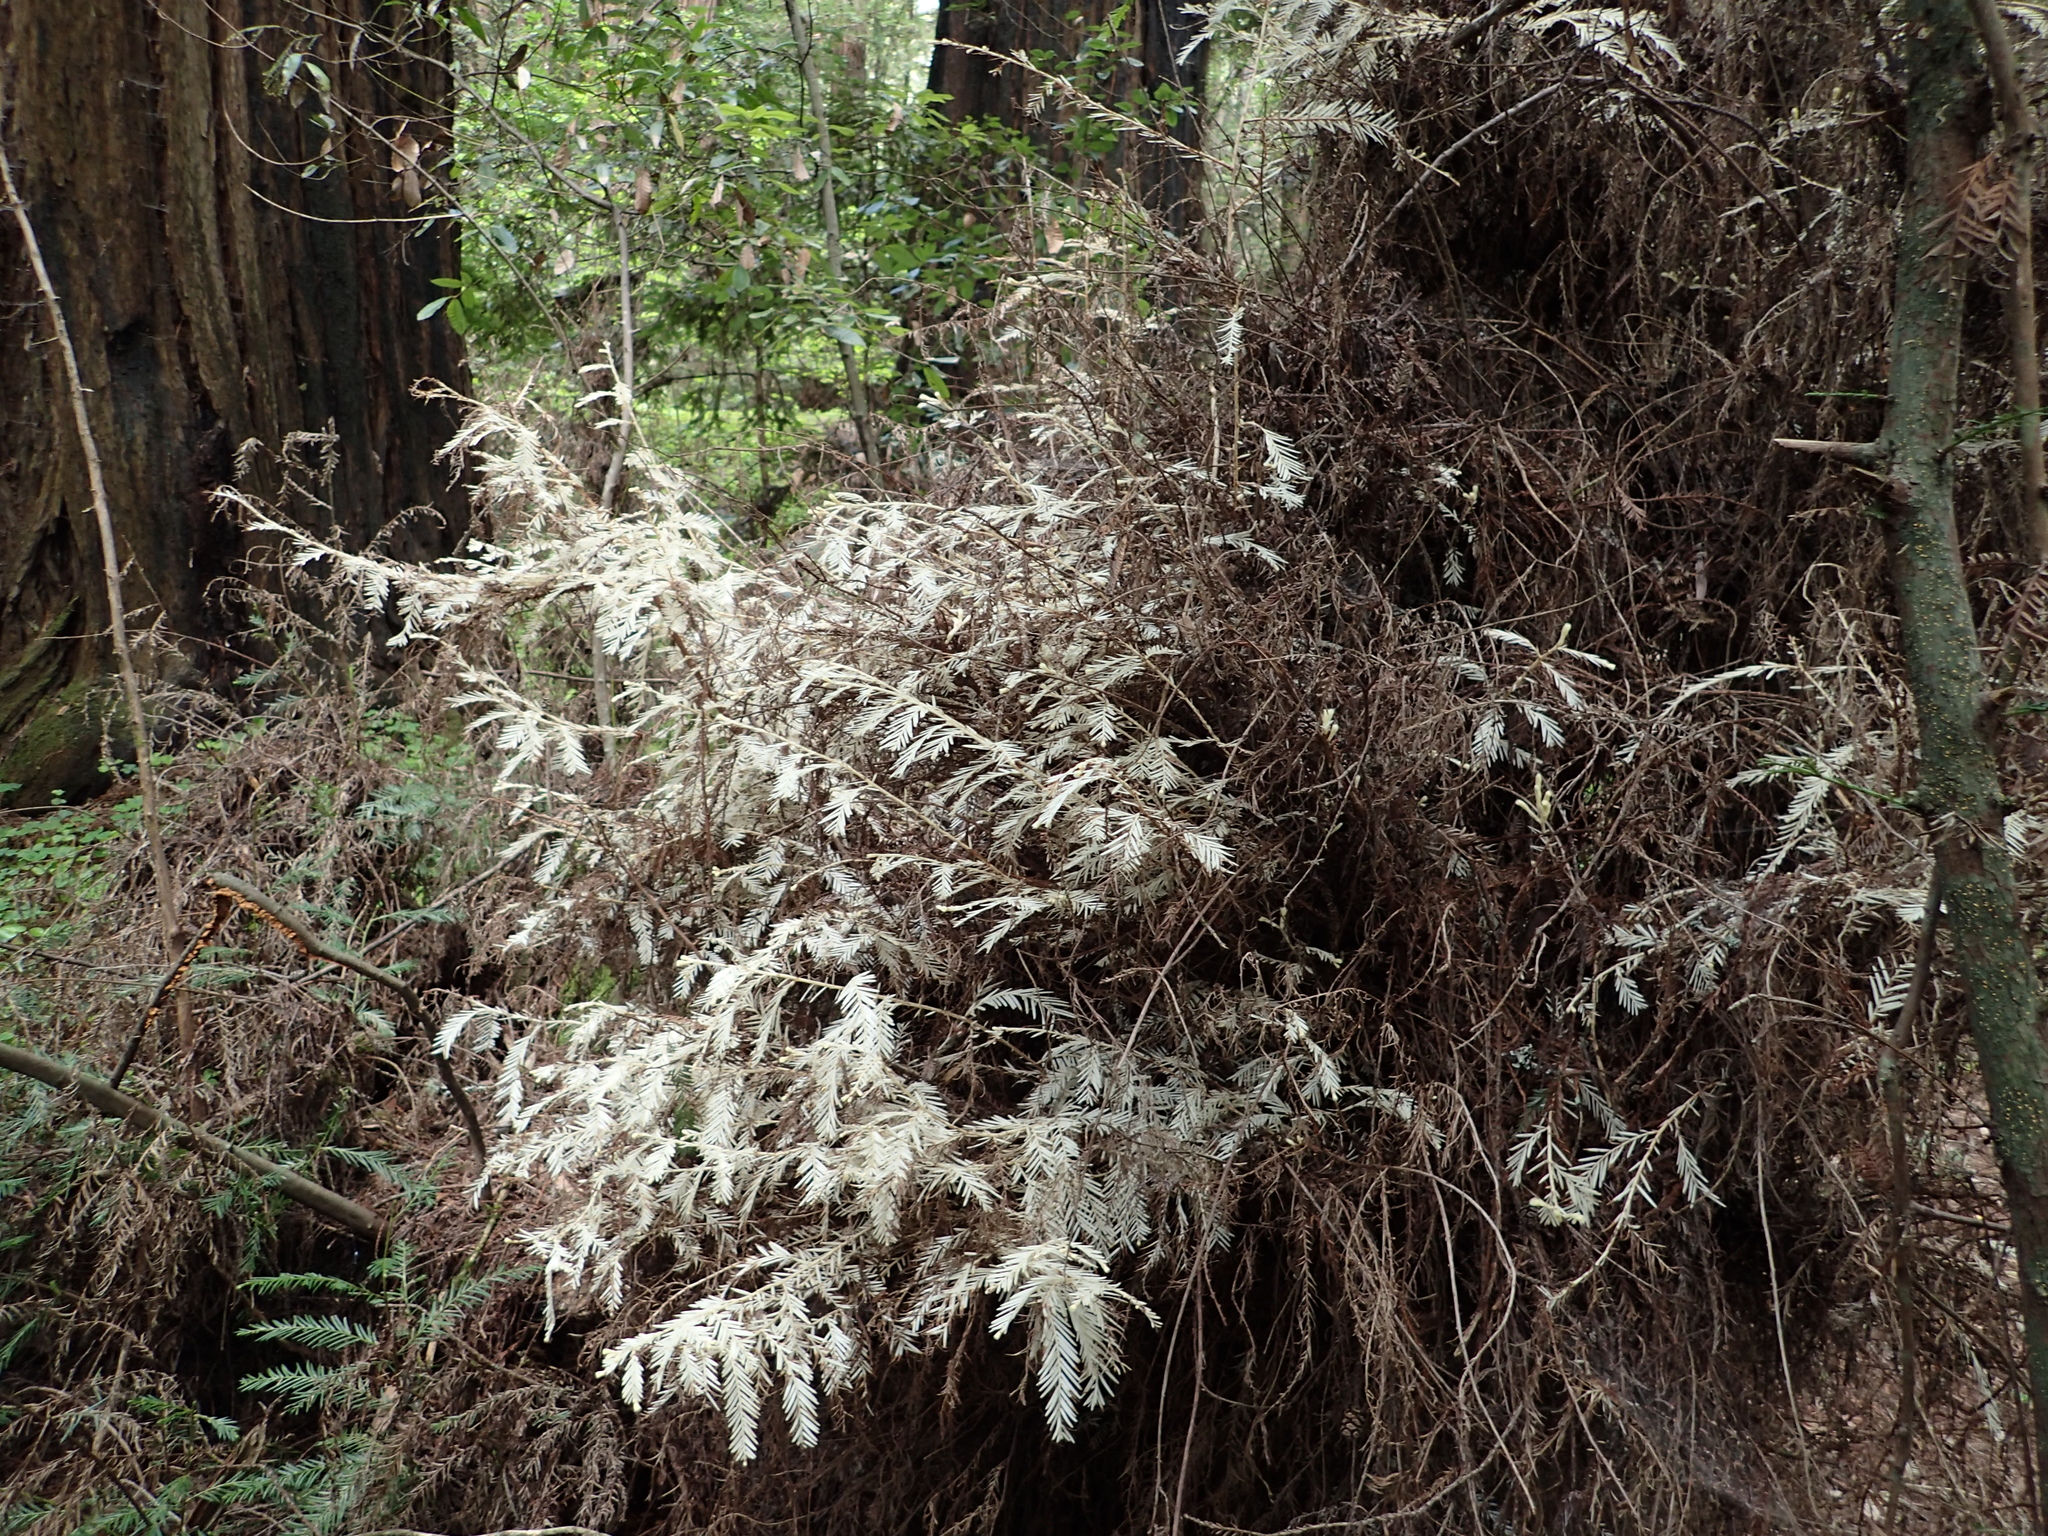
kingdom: Plantae
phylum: Tracheophyta
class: Pinopsida
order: Pinales
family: Cupressaceae
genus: Sequoia
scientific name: Sequoia sempervirens
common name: Coast redwood
